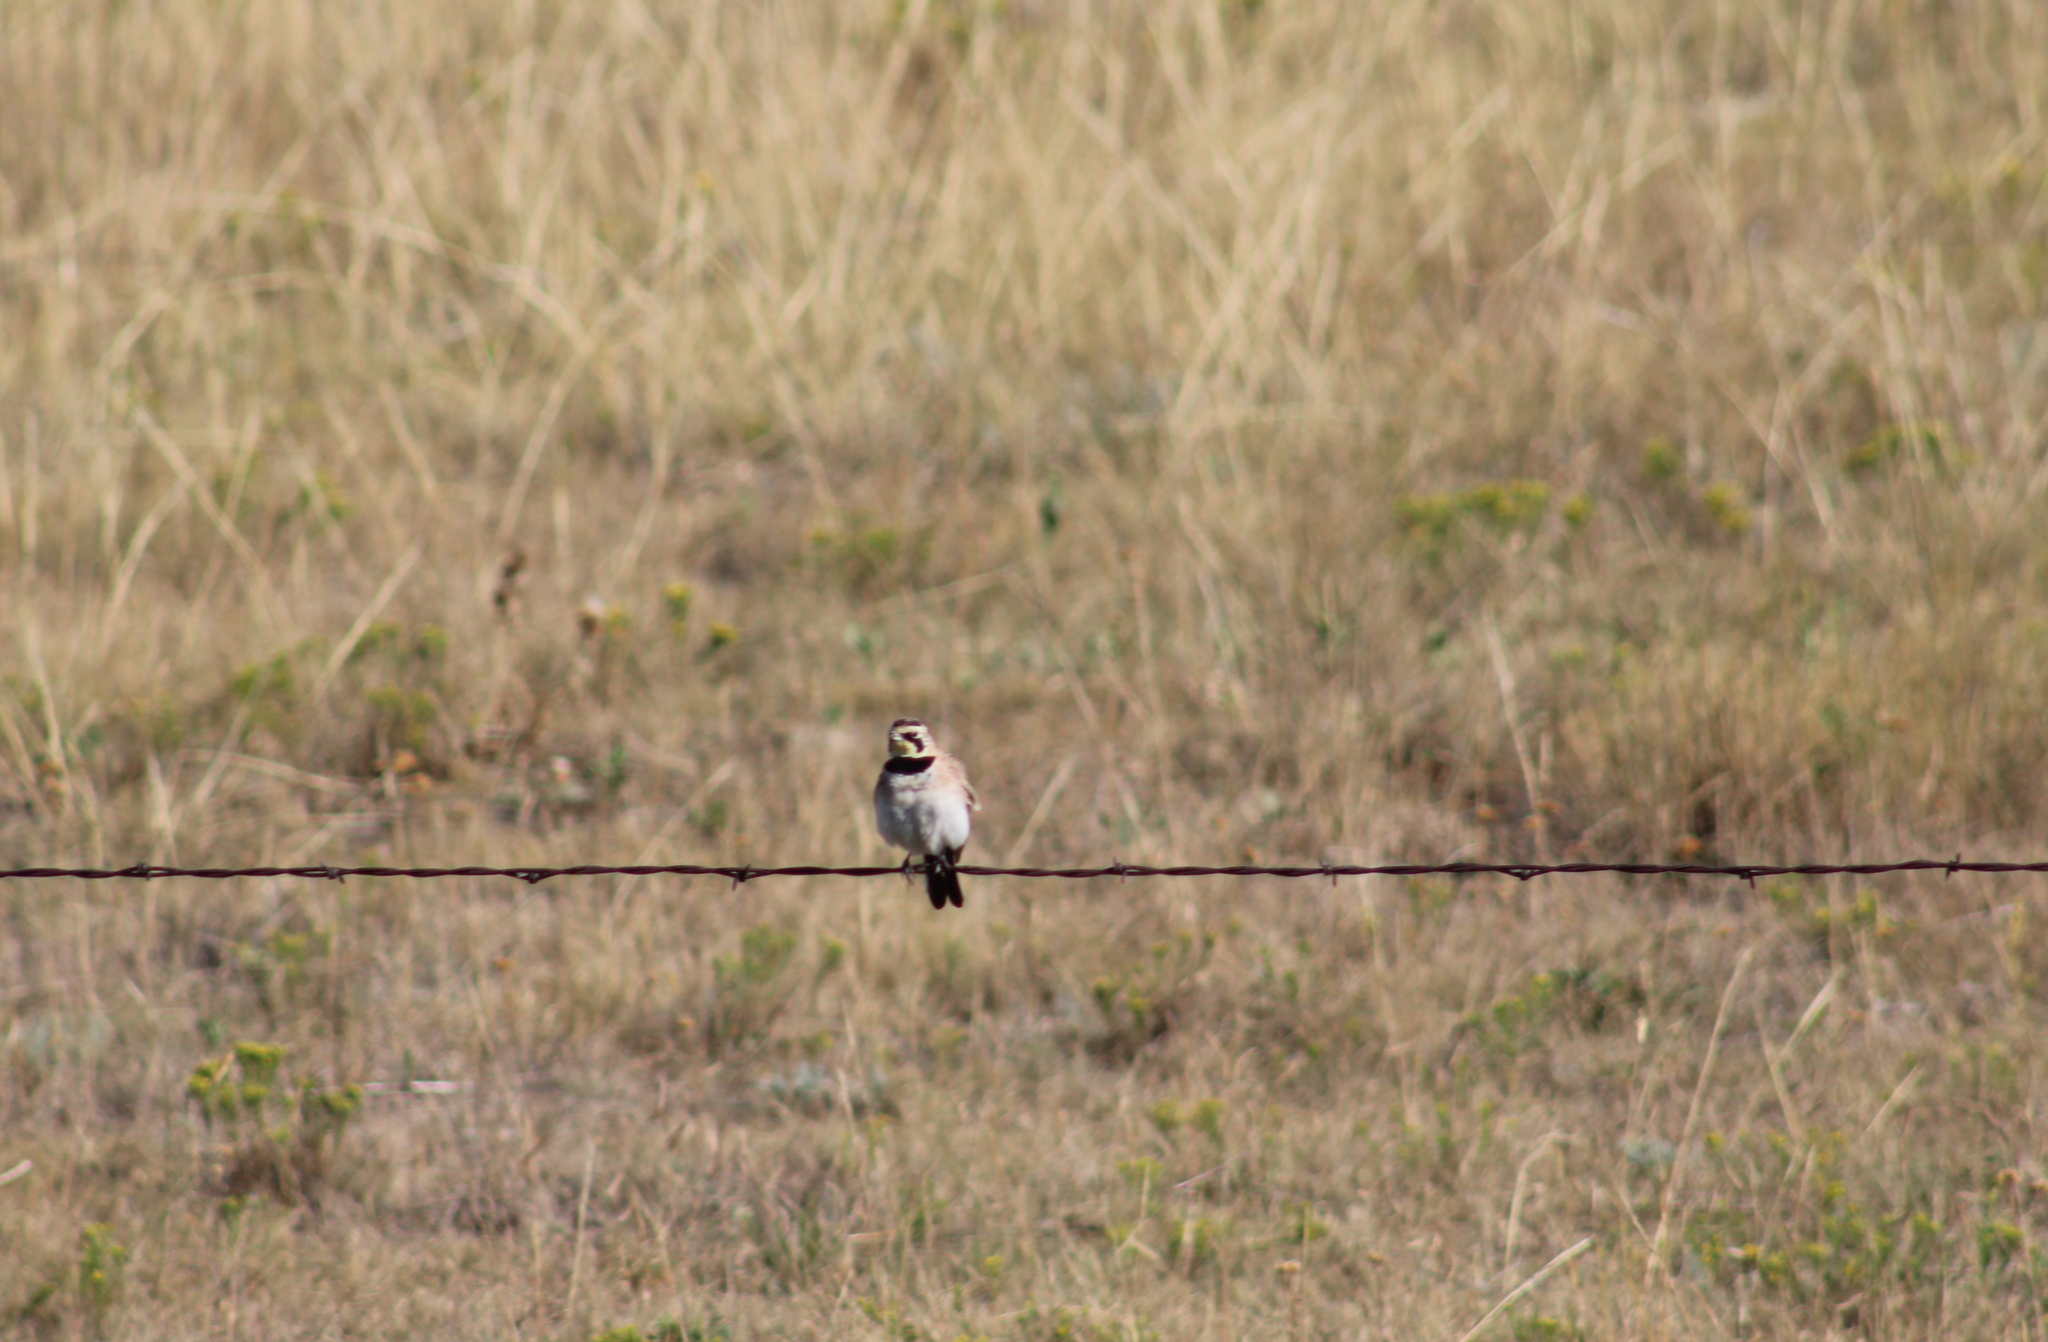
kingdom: Animalia
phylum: Chordata
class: Aves
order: Passeriformes
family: Alaudidae
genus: Eremophila
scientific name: Eremophila alpestris
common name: Horned lark
